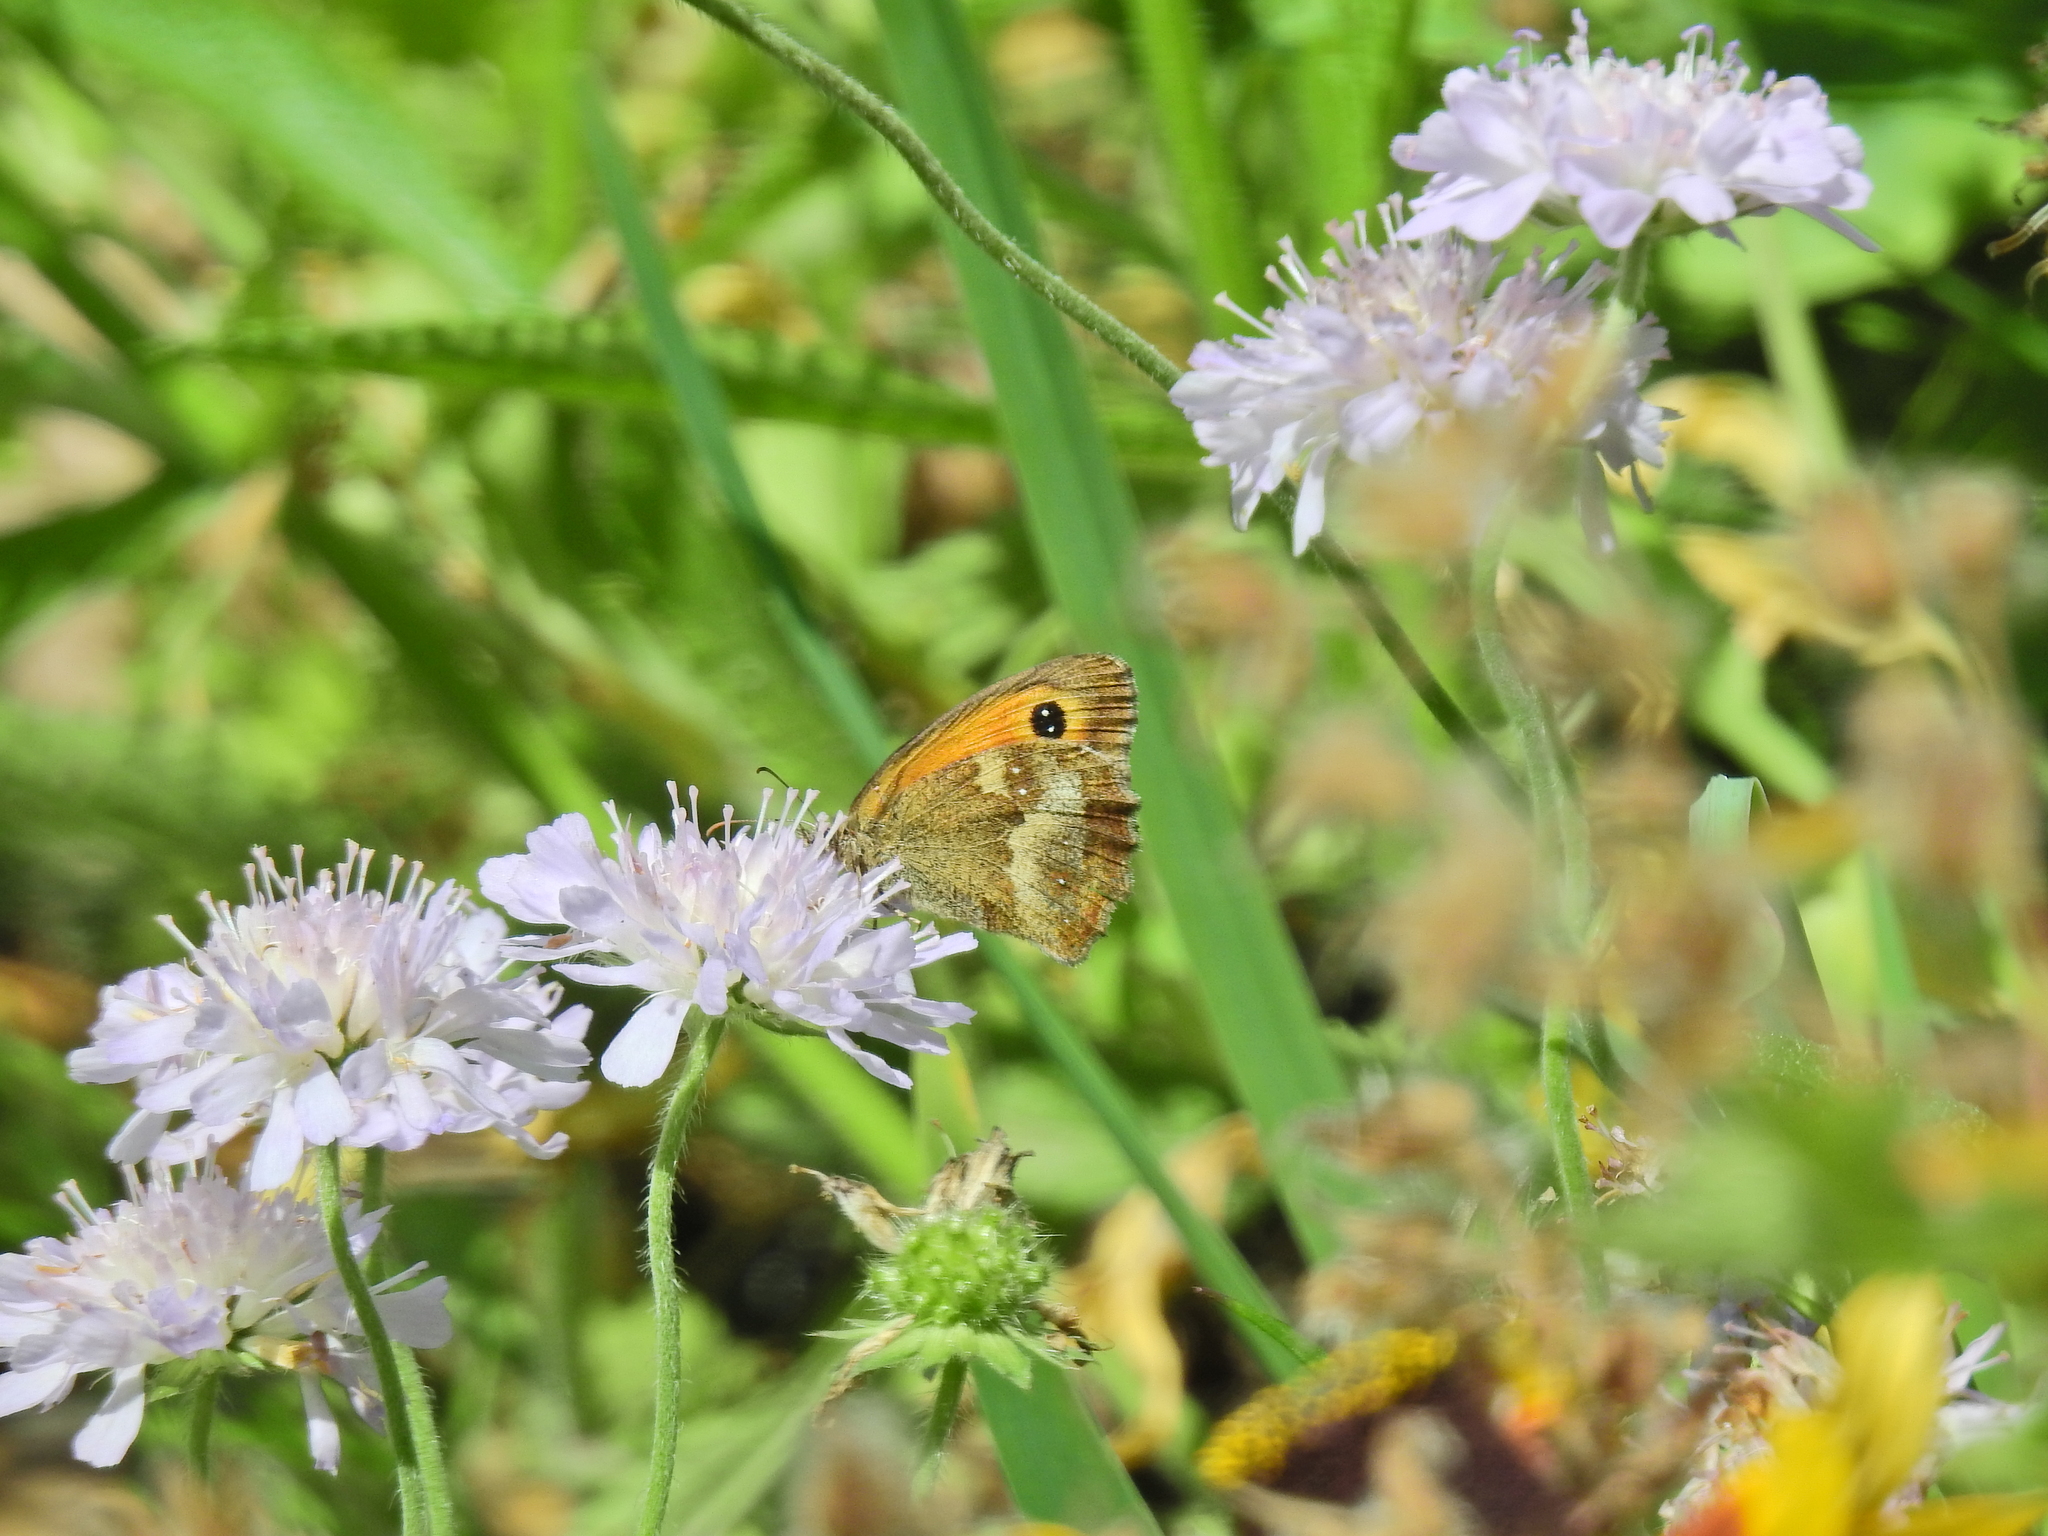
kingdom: Animalia
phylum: Arthropoda
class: Insecta
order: Lepidoptera
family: Nymphalidae
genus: Pyronia
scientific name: Pyronia tithonus
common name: Gatekeeper
